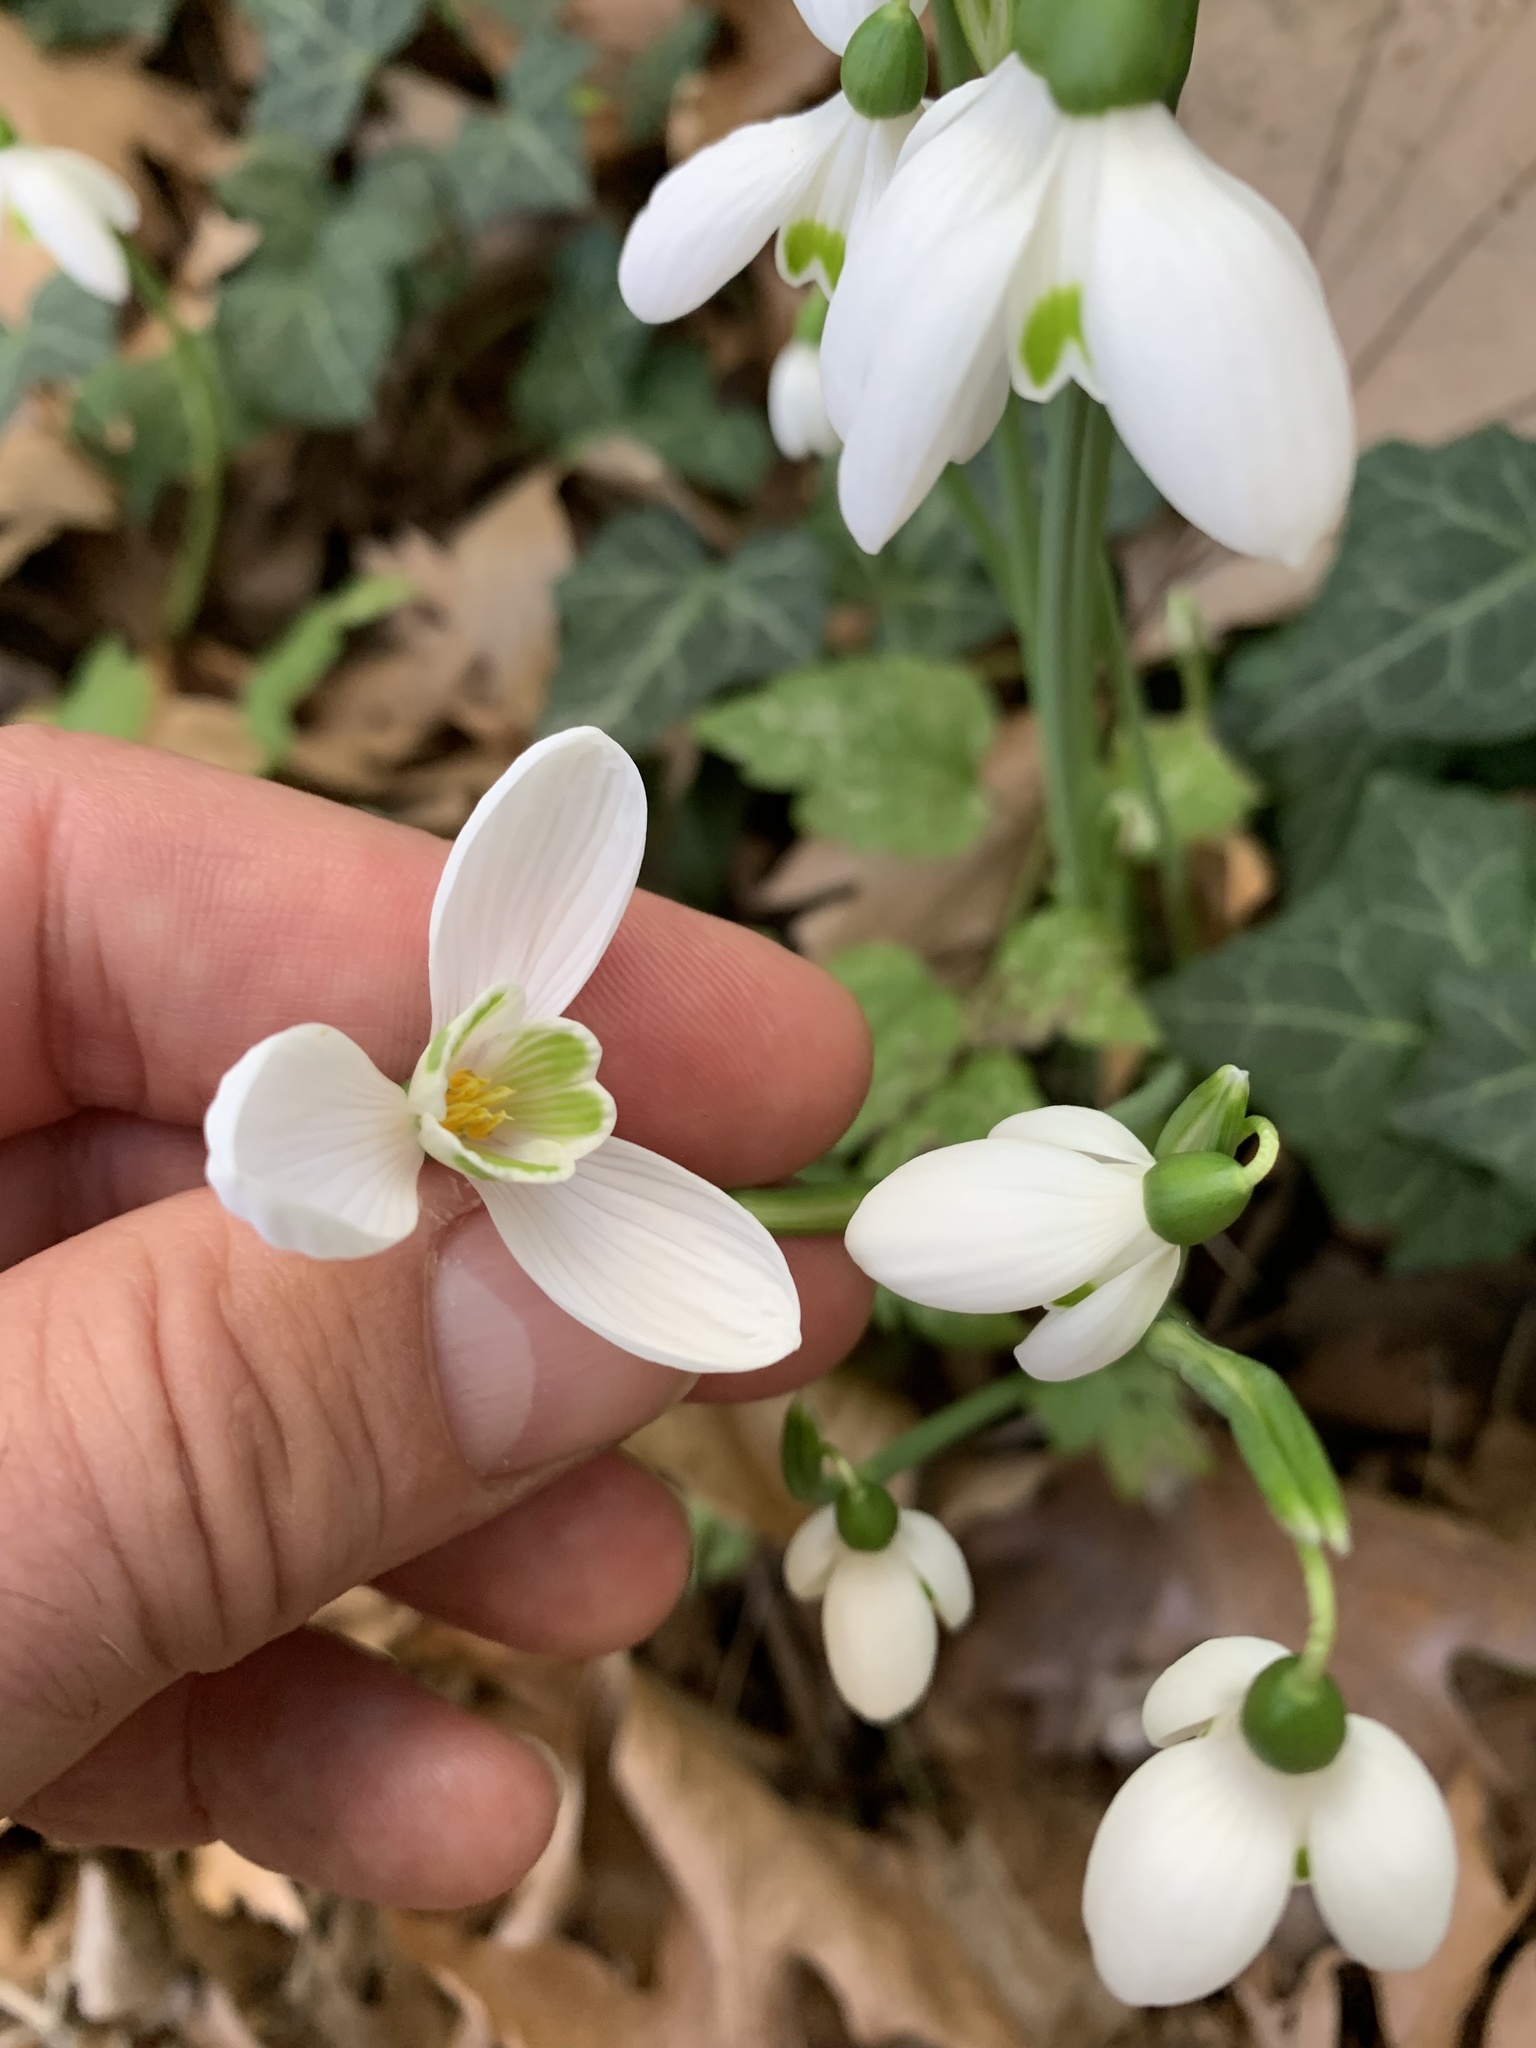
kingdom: Plantae
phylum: Tracheophyta
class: Liliopsida
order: Asparagales
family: Amaryllidaceae
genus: Galanthus
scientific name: Galanthus reginae-olgae
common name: Queen olga's snowdrop
